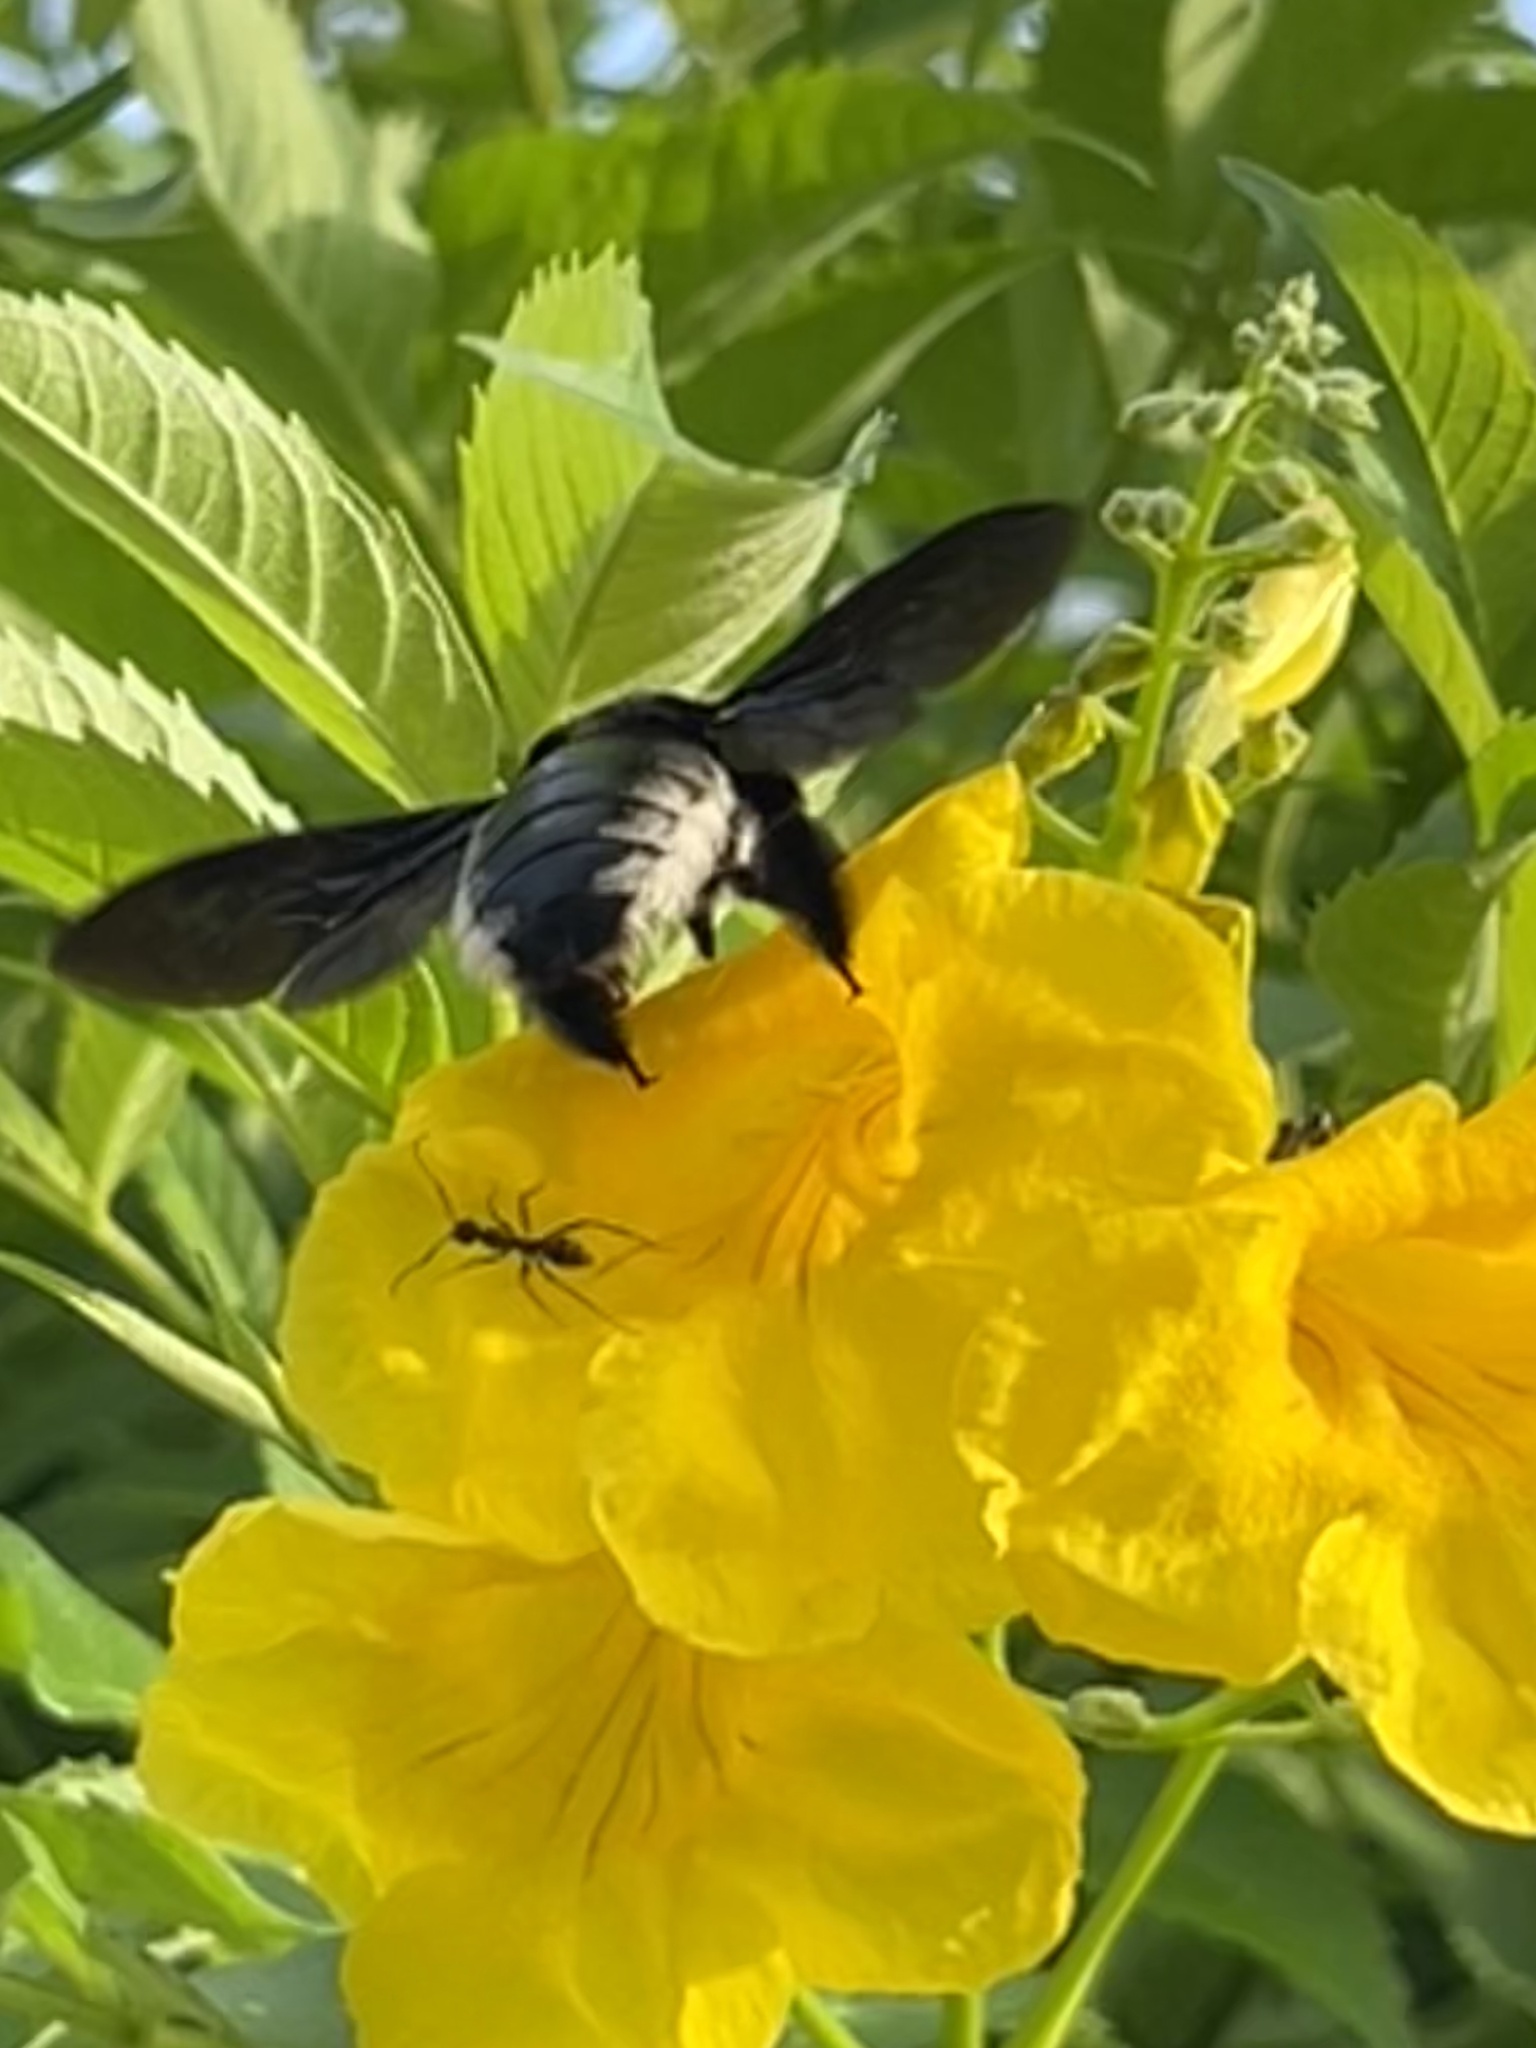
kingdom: Animalia
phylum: Arthropoda
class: Insecta
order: Hymenoptera
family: Apidae
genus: Xylocopa
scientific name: Xylocopa nigrita
